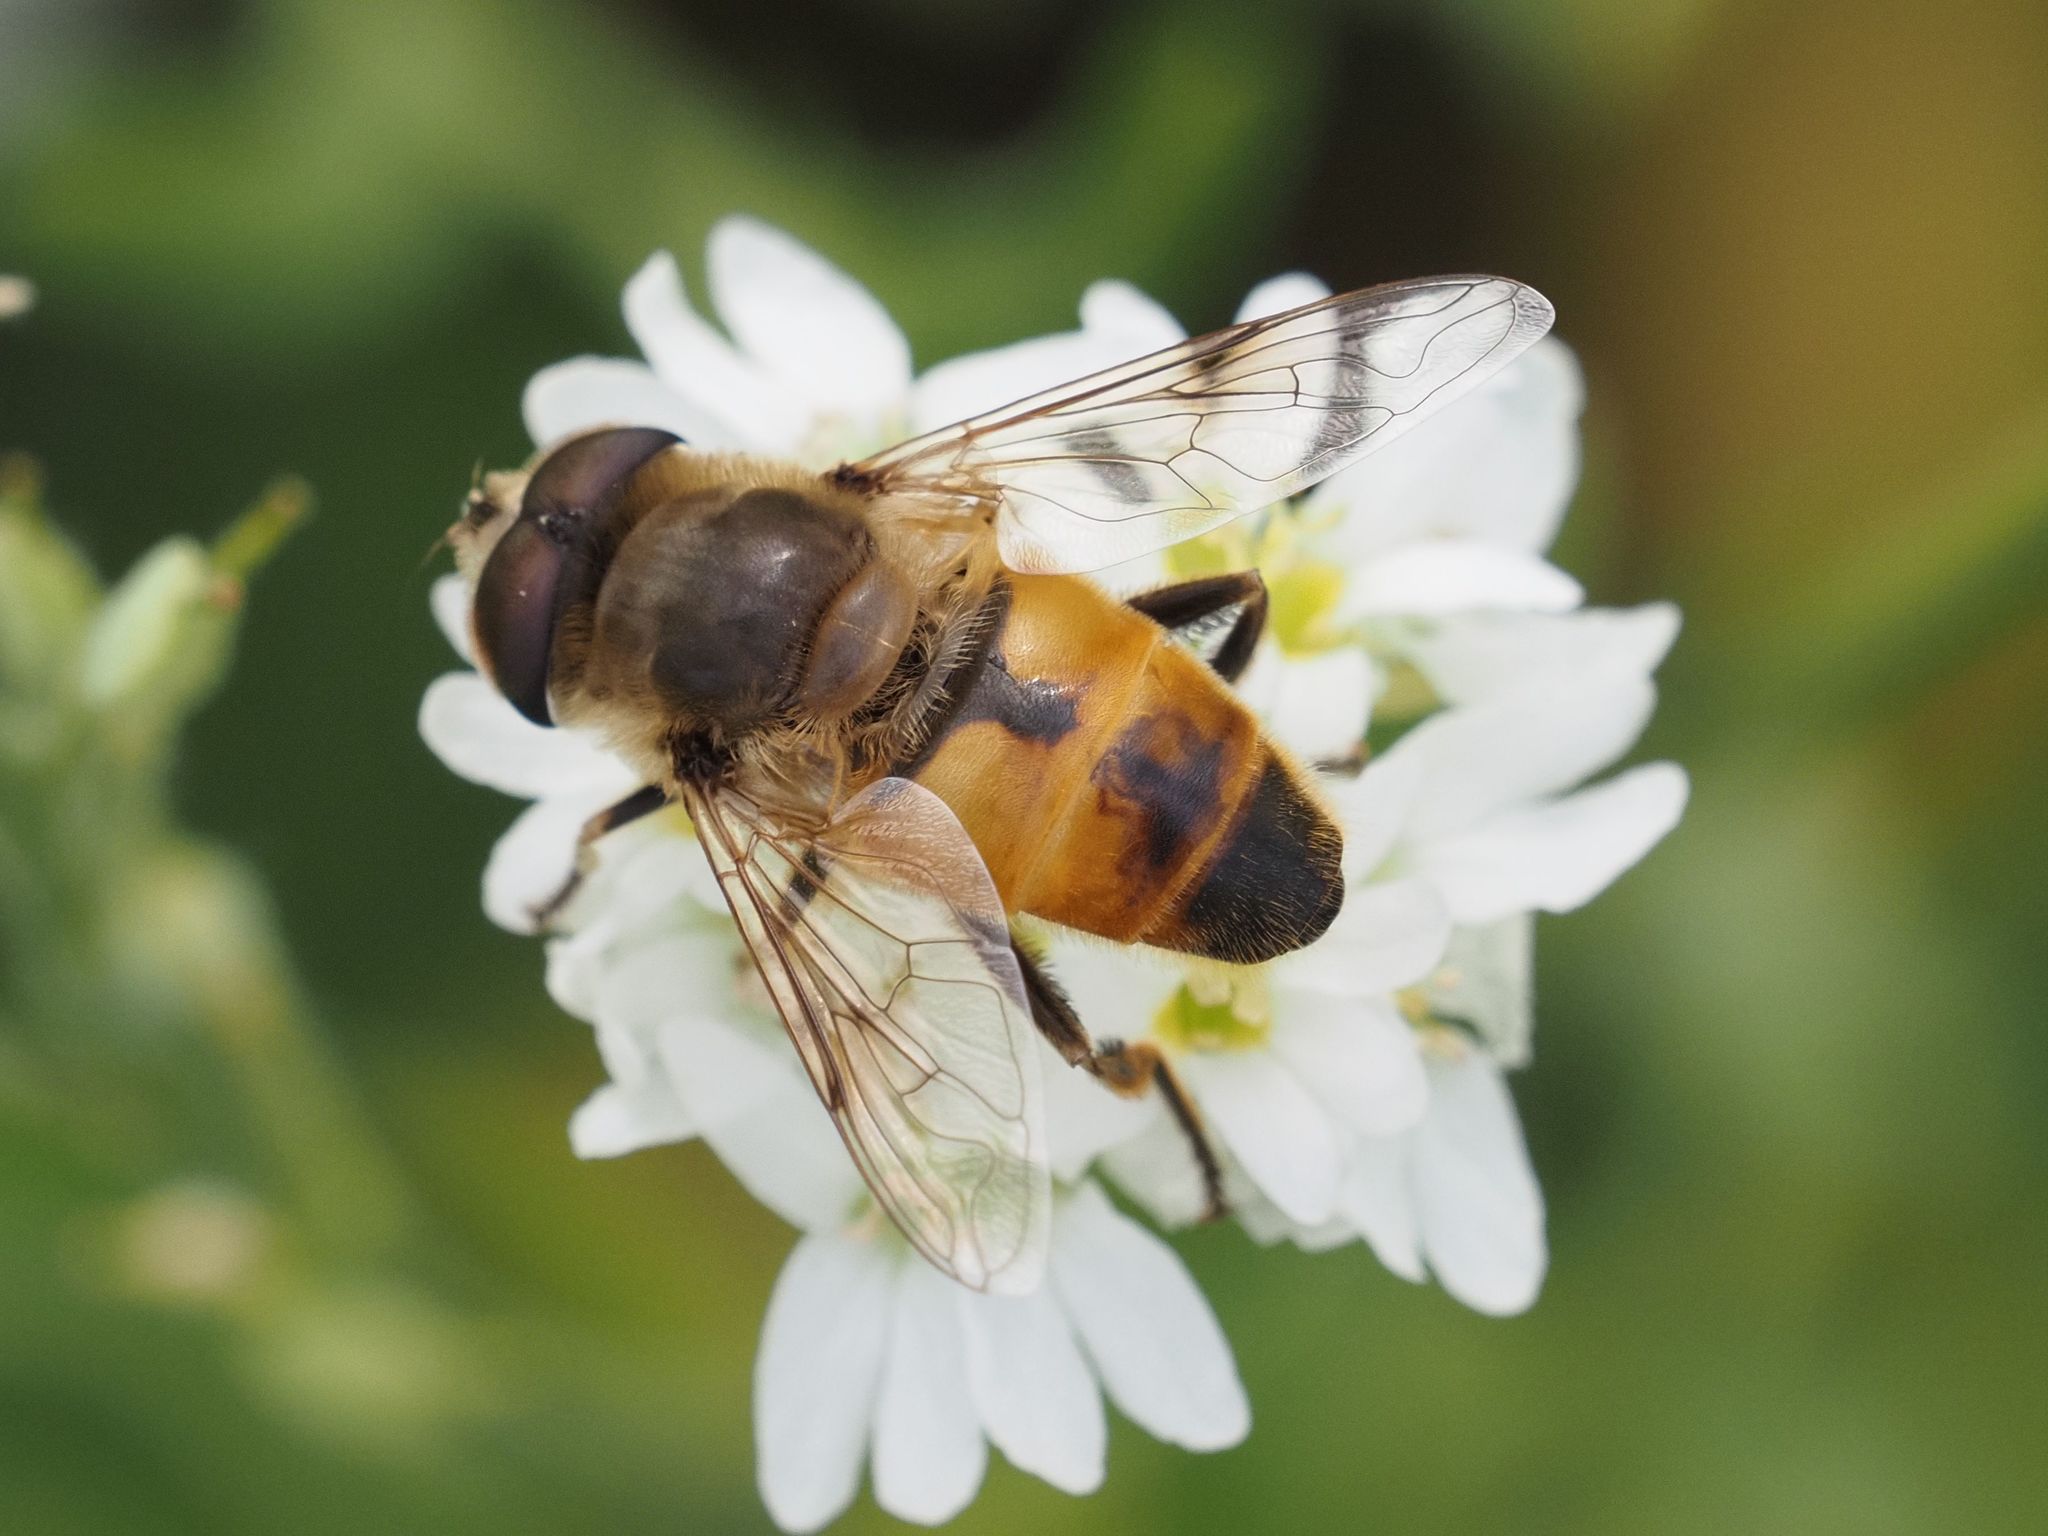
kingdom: Animalia
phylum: Arthropoda
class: Insecta
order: Diptera
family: Syrphidae
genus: Eristalis
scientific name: Eristalis tenax
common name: Drone fly
